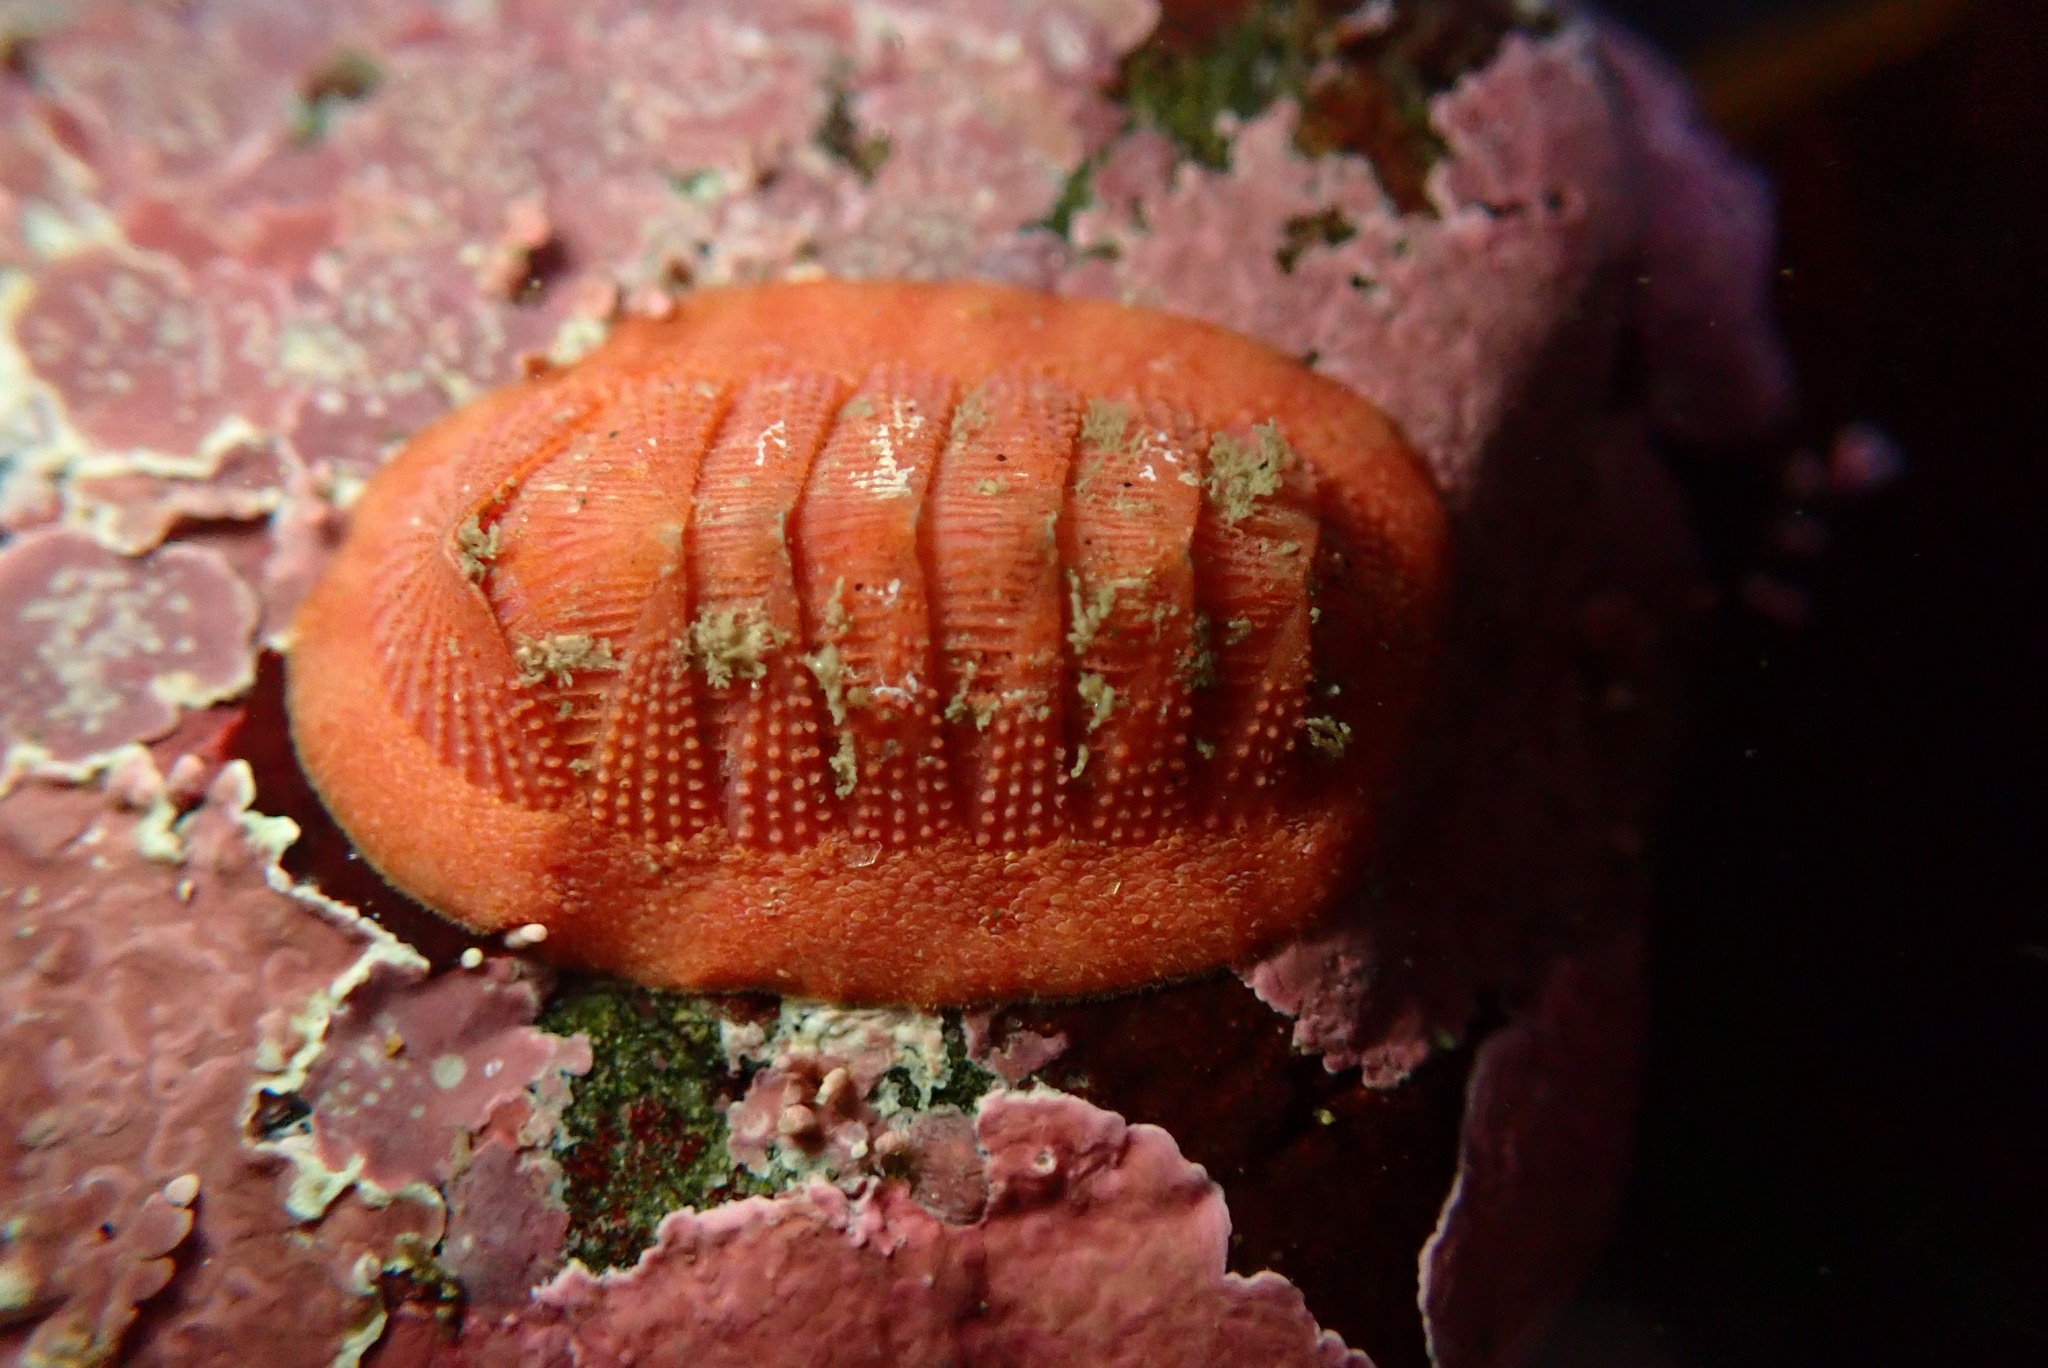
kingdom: Animalia
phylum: Mollusca
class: Polyplacophora
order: Chitonida
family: Ischnochitonidae
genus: Lepidozona
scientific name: Lepidozona mertensii
